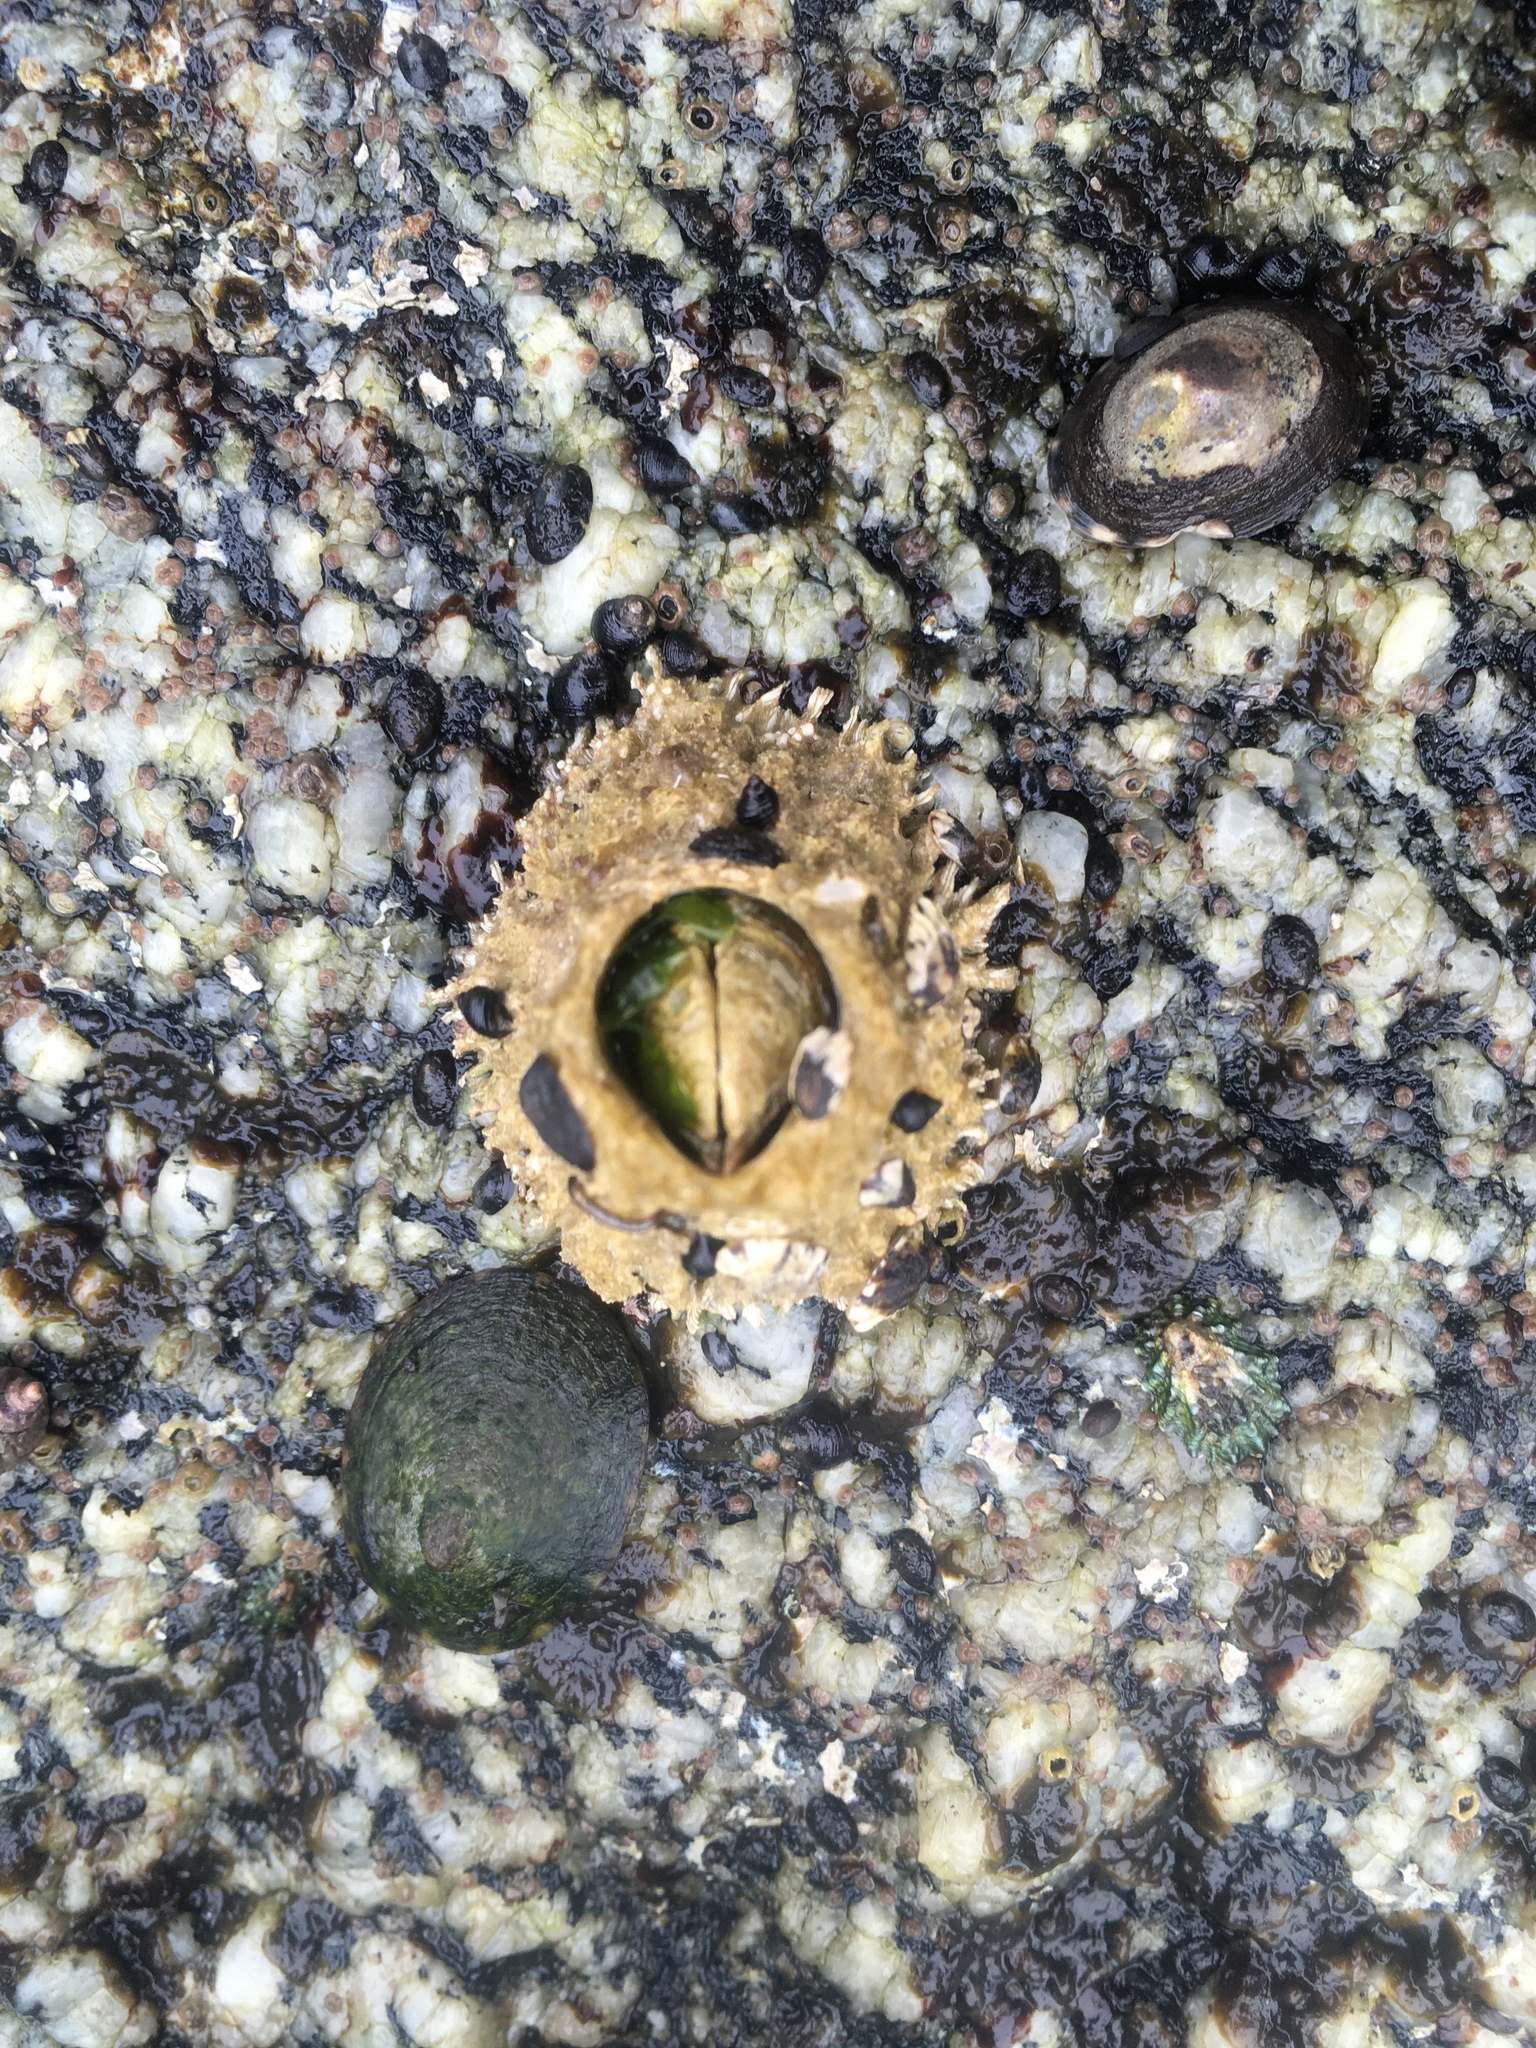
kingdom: Animalia
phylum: Arthropoda
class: Maxillopoda
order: Sessilia
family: Archaeobalanidae
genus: Semibalanus
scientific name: Semibalanus cariosus
